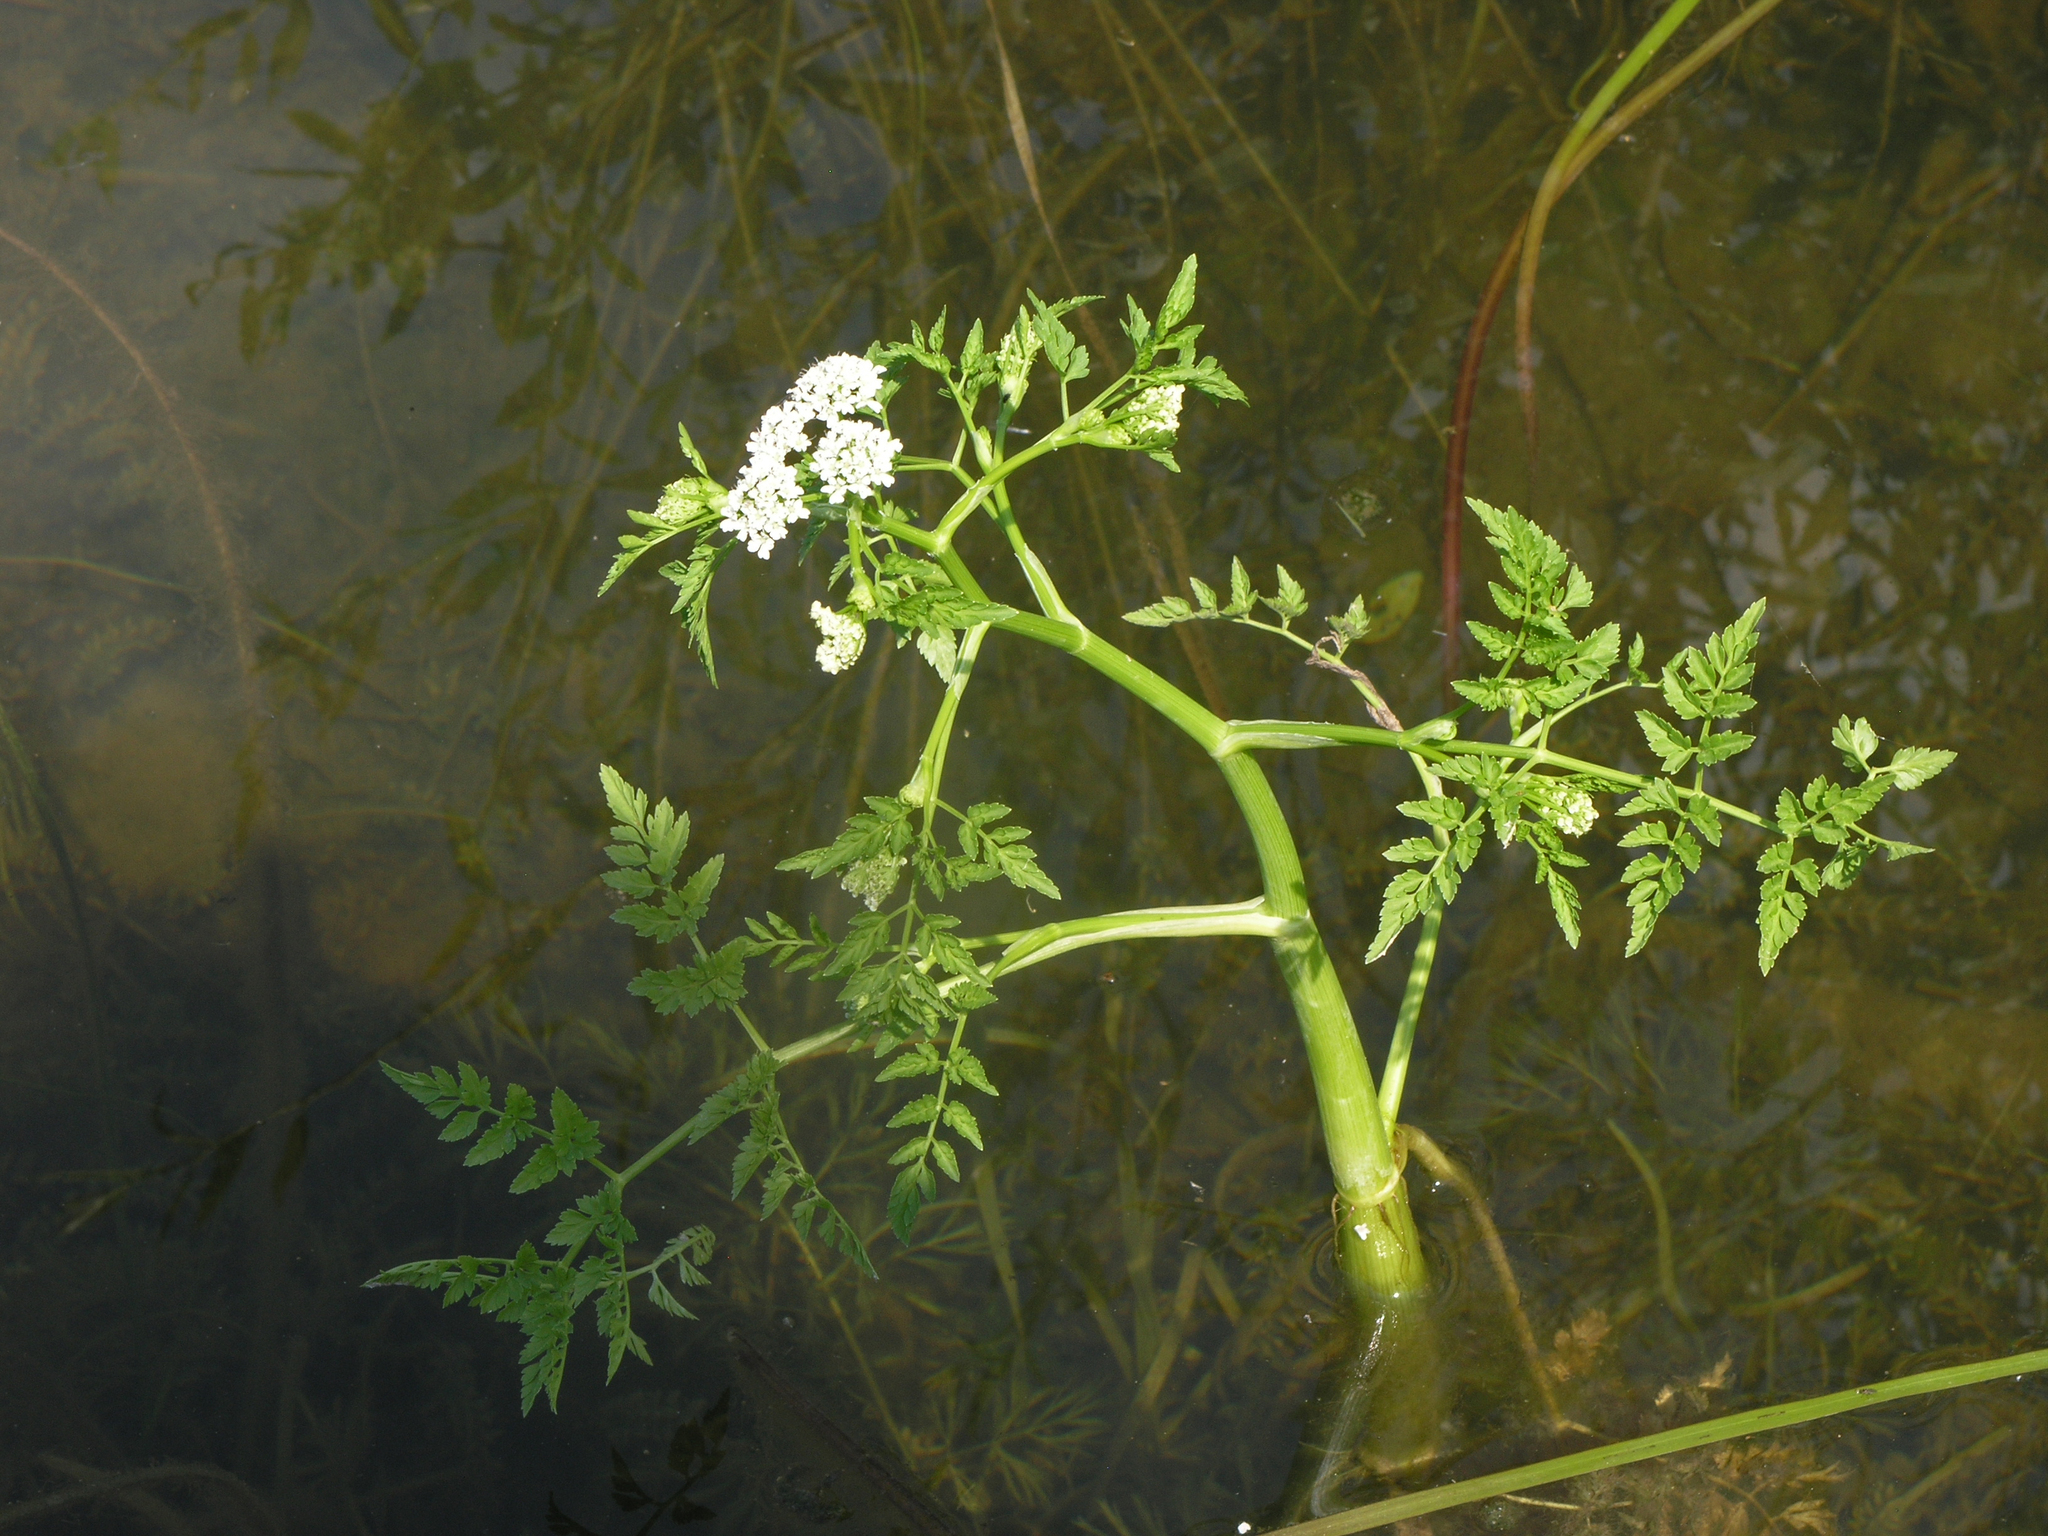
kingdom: Plantae
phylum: Tracheophyta
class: Magnoliopsida
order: Apiales
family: Apiaceae
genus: Oenanthe
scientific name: Oenanthe aquatica
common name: Fine-leaved water-dropwort
